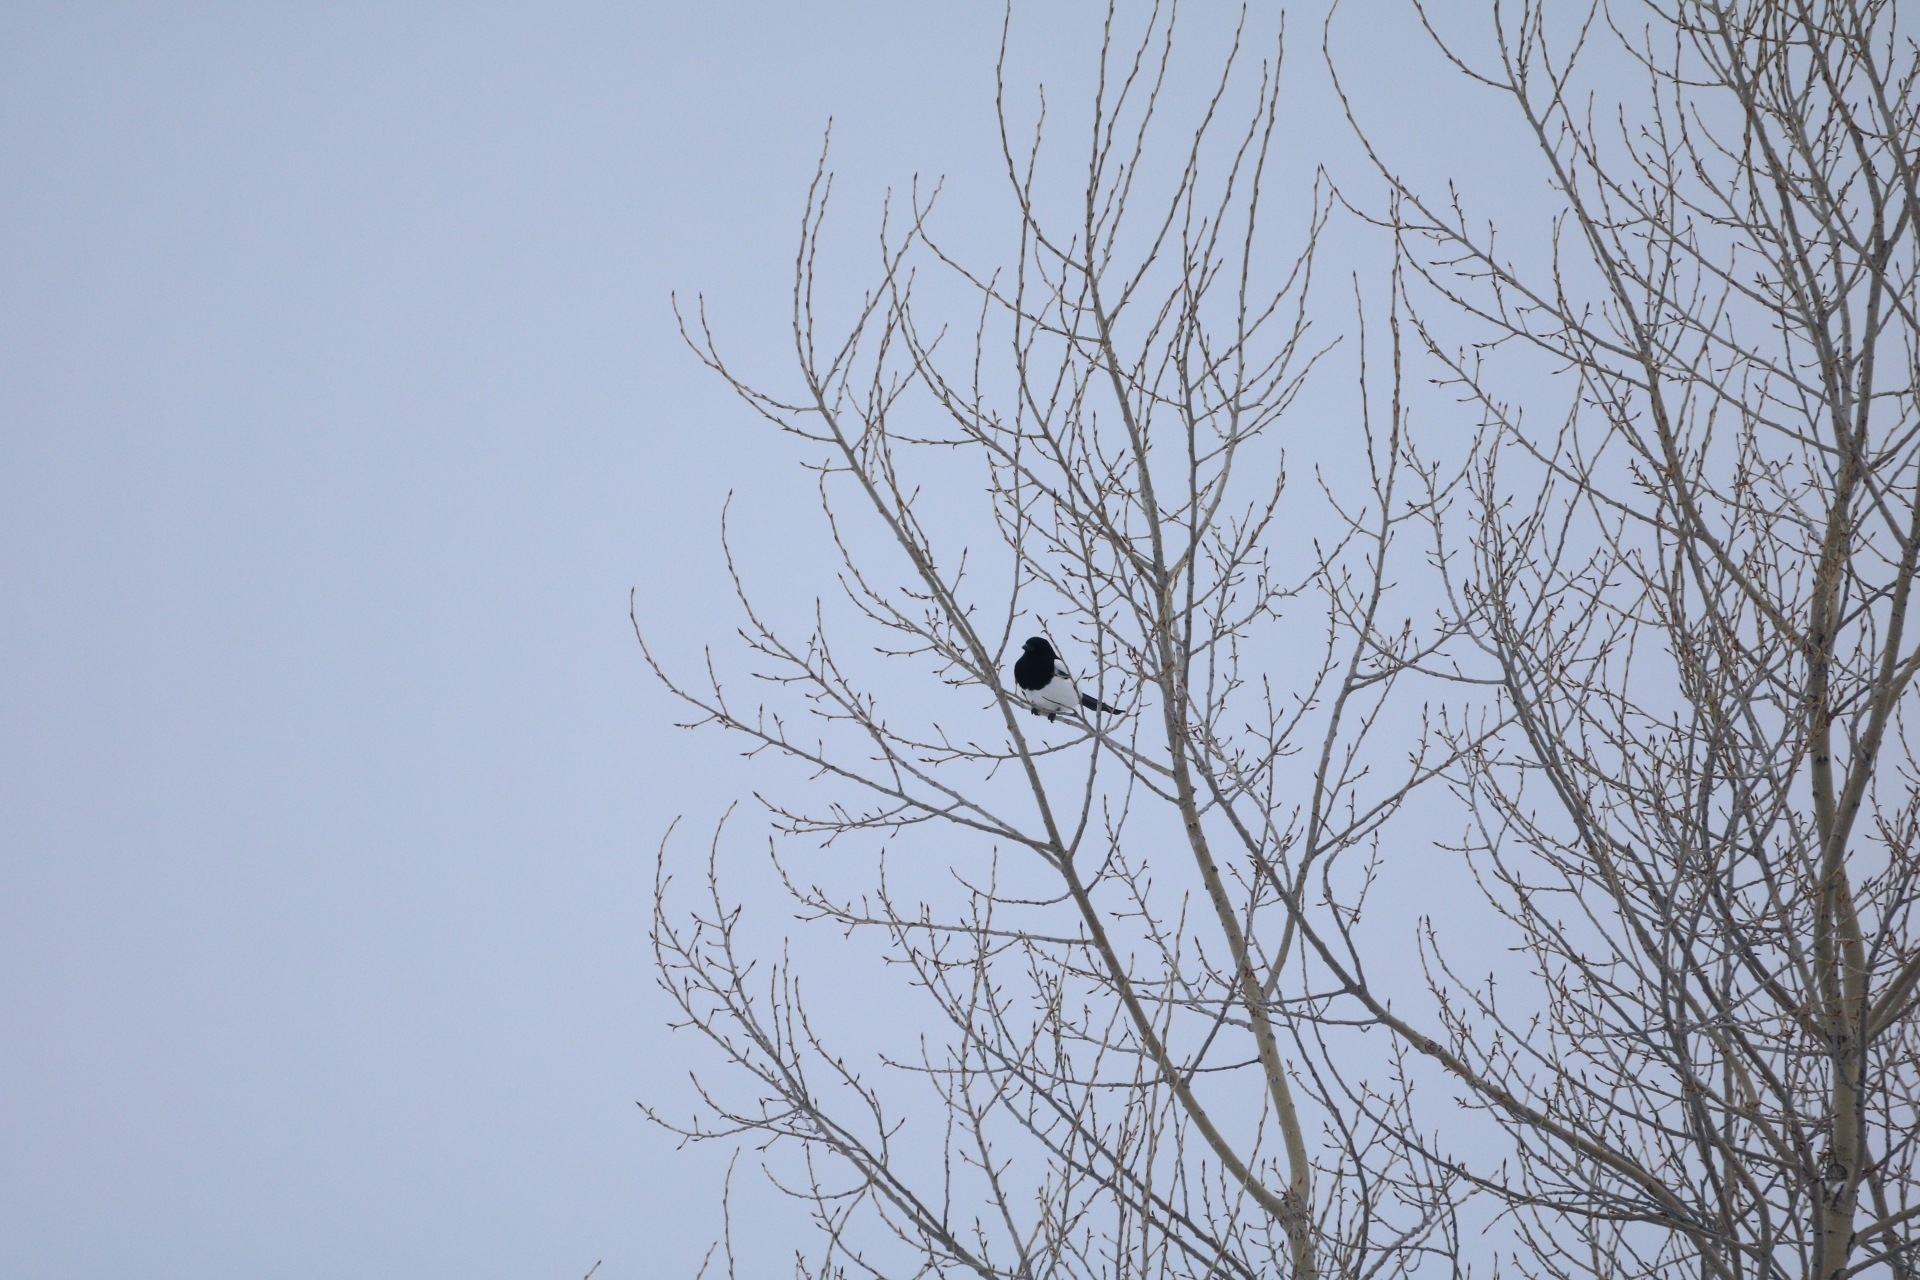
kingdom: Animalia
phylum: Chordata
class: Aves
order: Passeriformes
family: Corvidae
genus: Pica
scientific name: Pica pica
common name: Eurasian magpie
